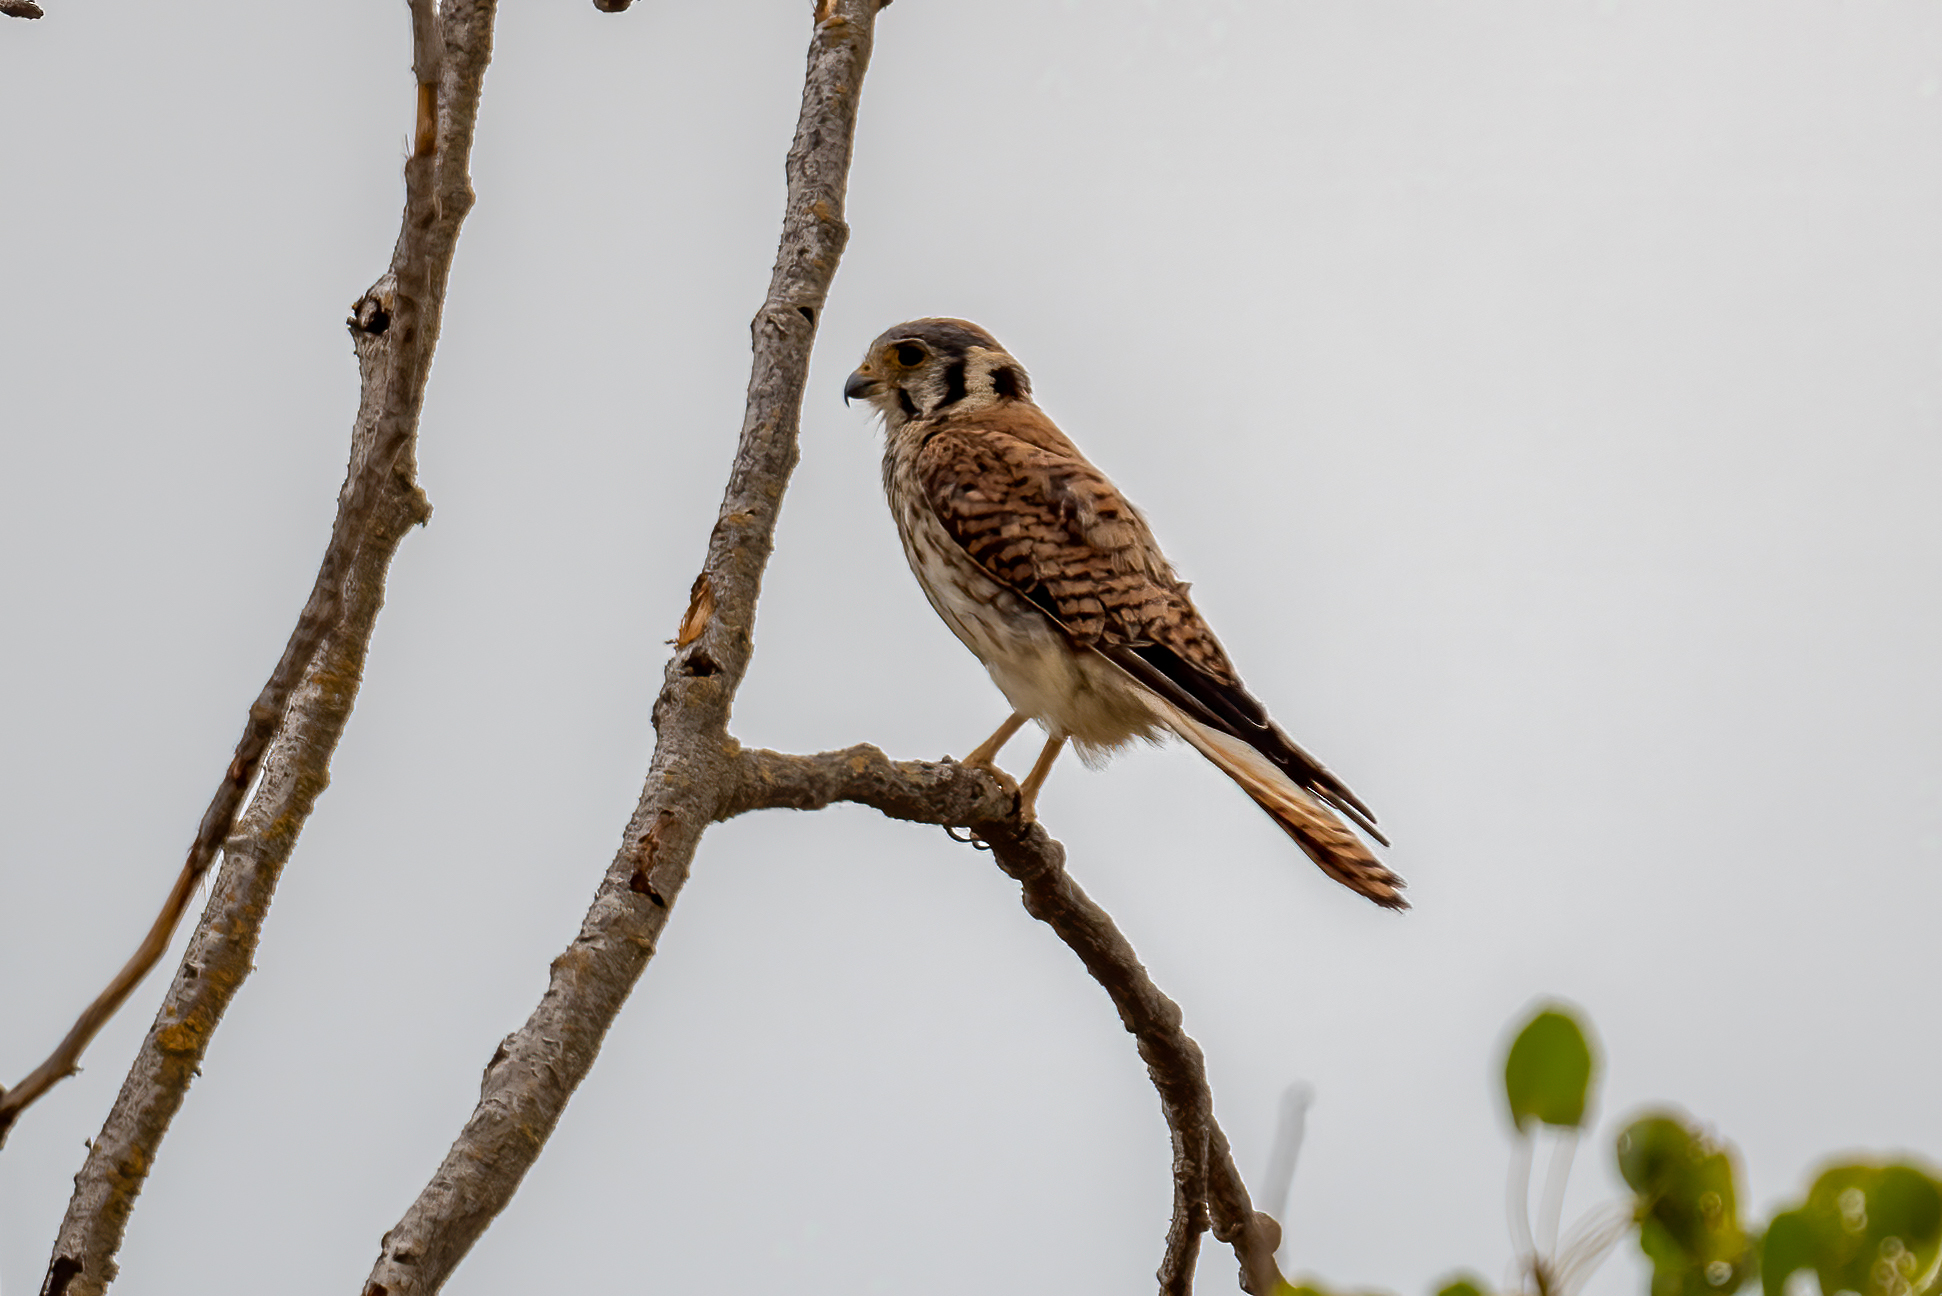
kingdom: Animalia
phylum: Chordata
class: Aves
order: Falconiformes
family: Falconidae
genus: Falco
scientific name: Falco sparverius
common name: American kestrel
